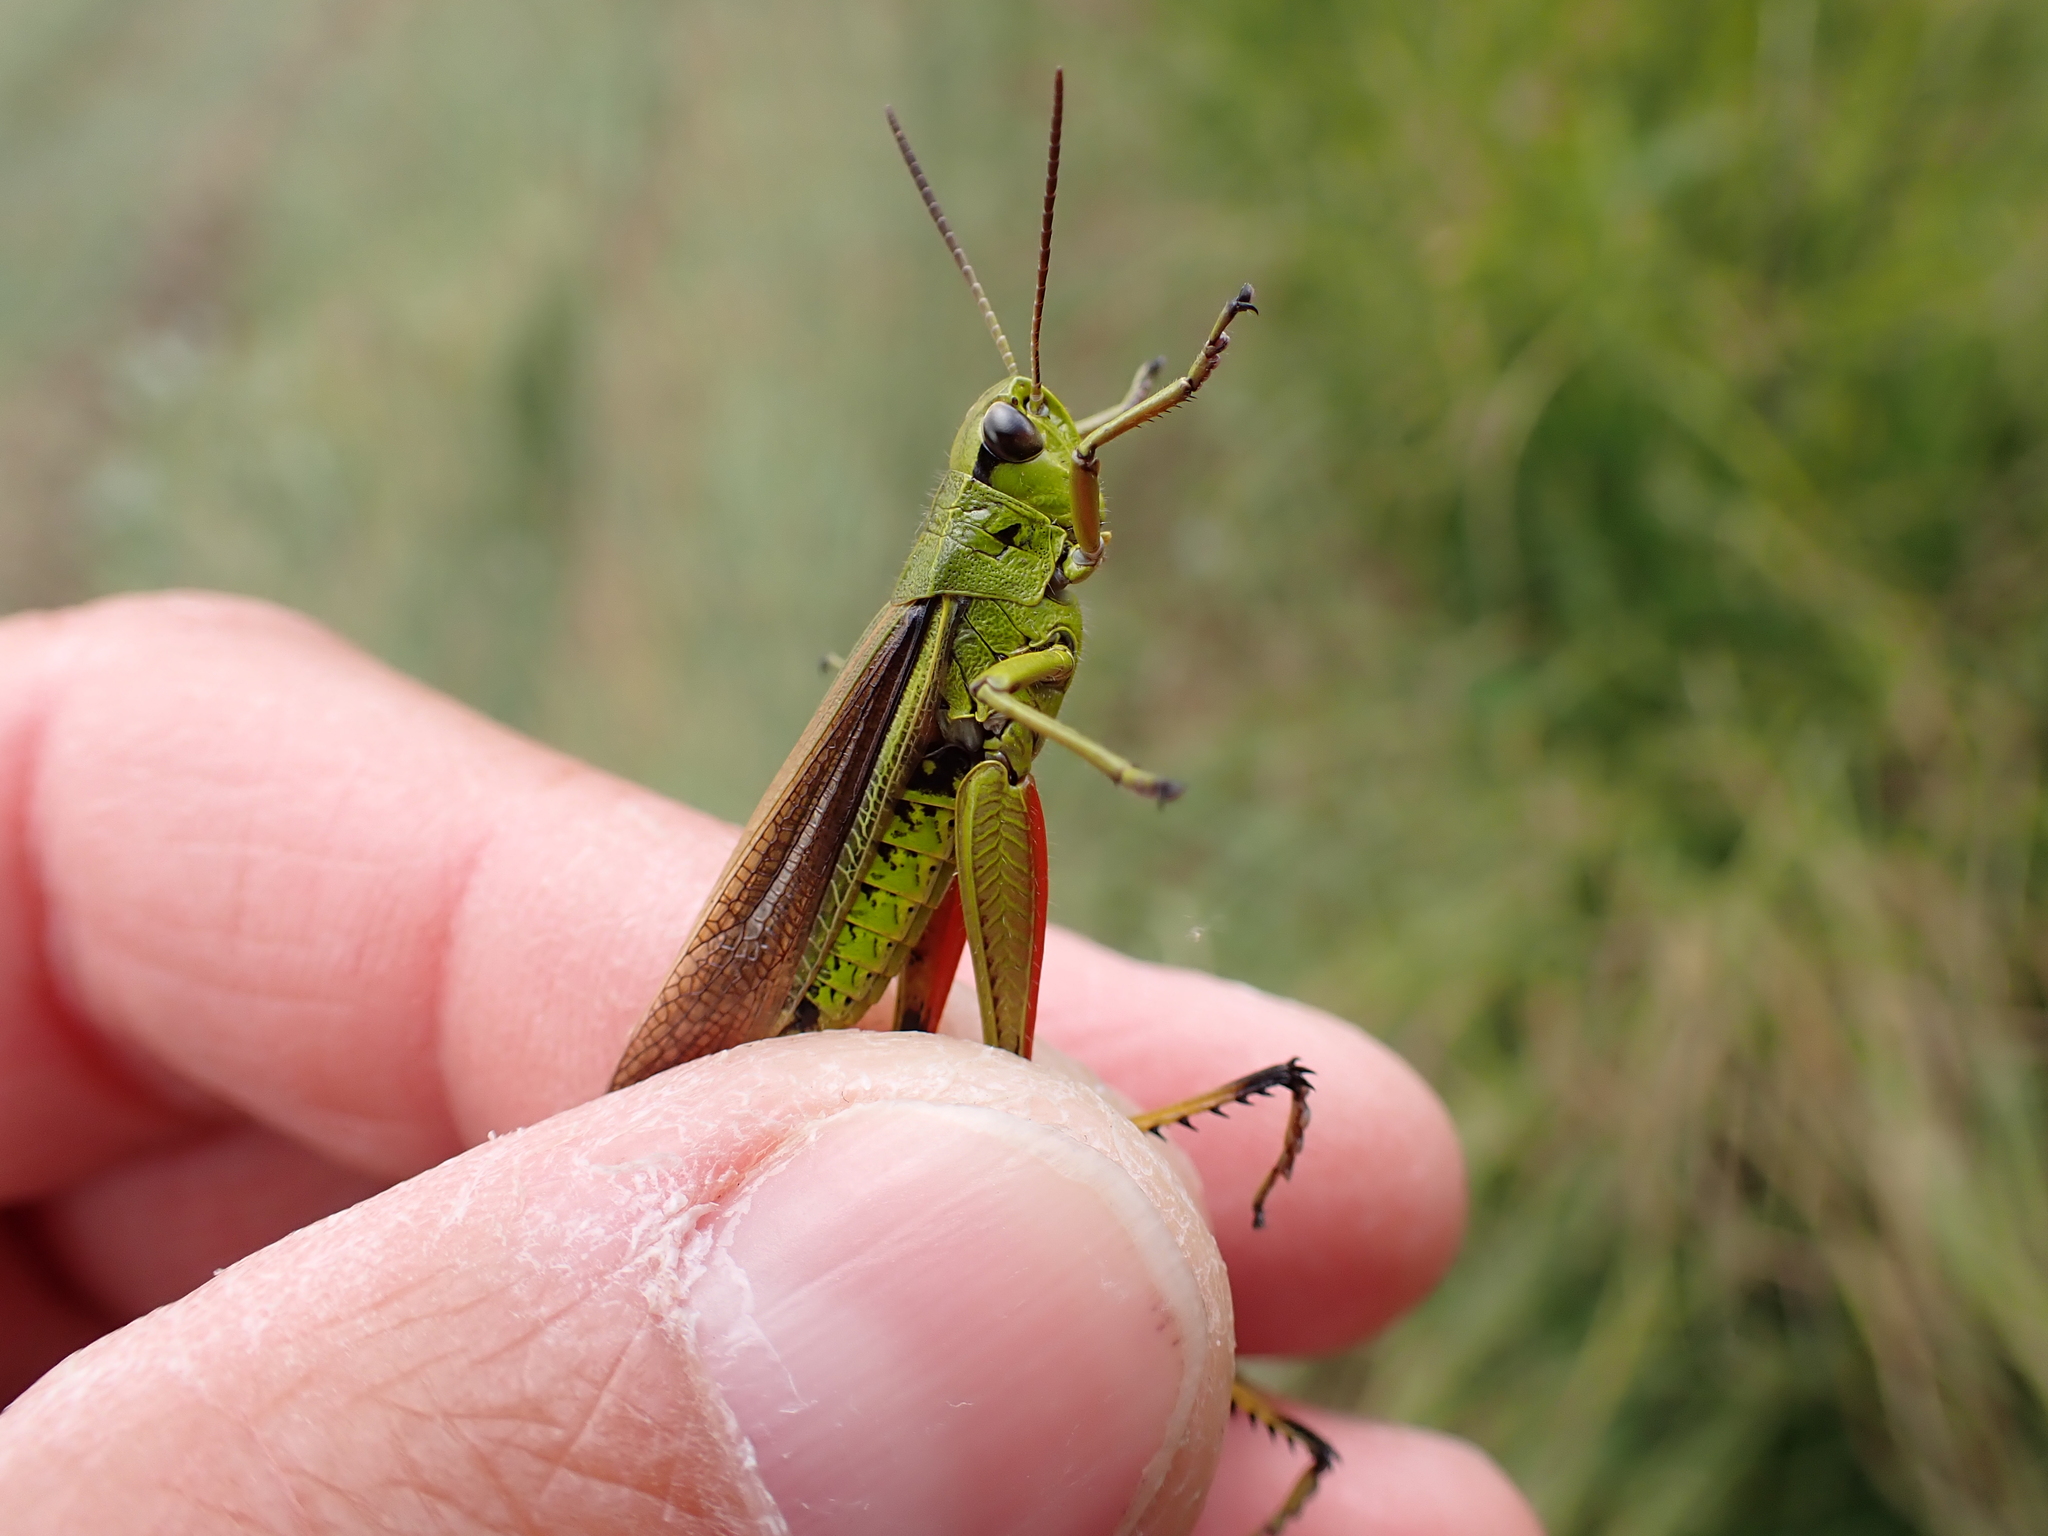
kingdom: Animalia
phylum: Arthropoda
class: Insecta
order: Orthoptera
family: Acrididae
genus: Stethophyma
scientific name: Stethophyma grossum
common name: Large marsh grasshopper
